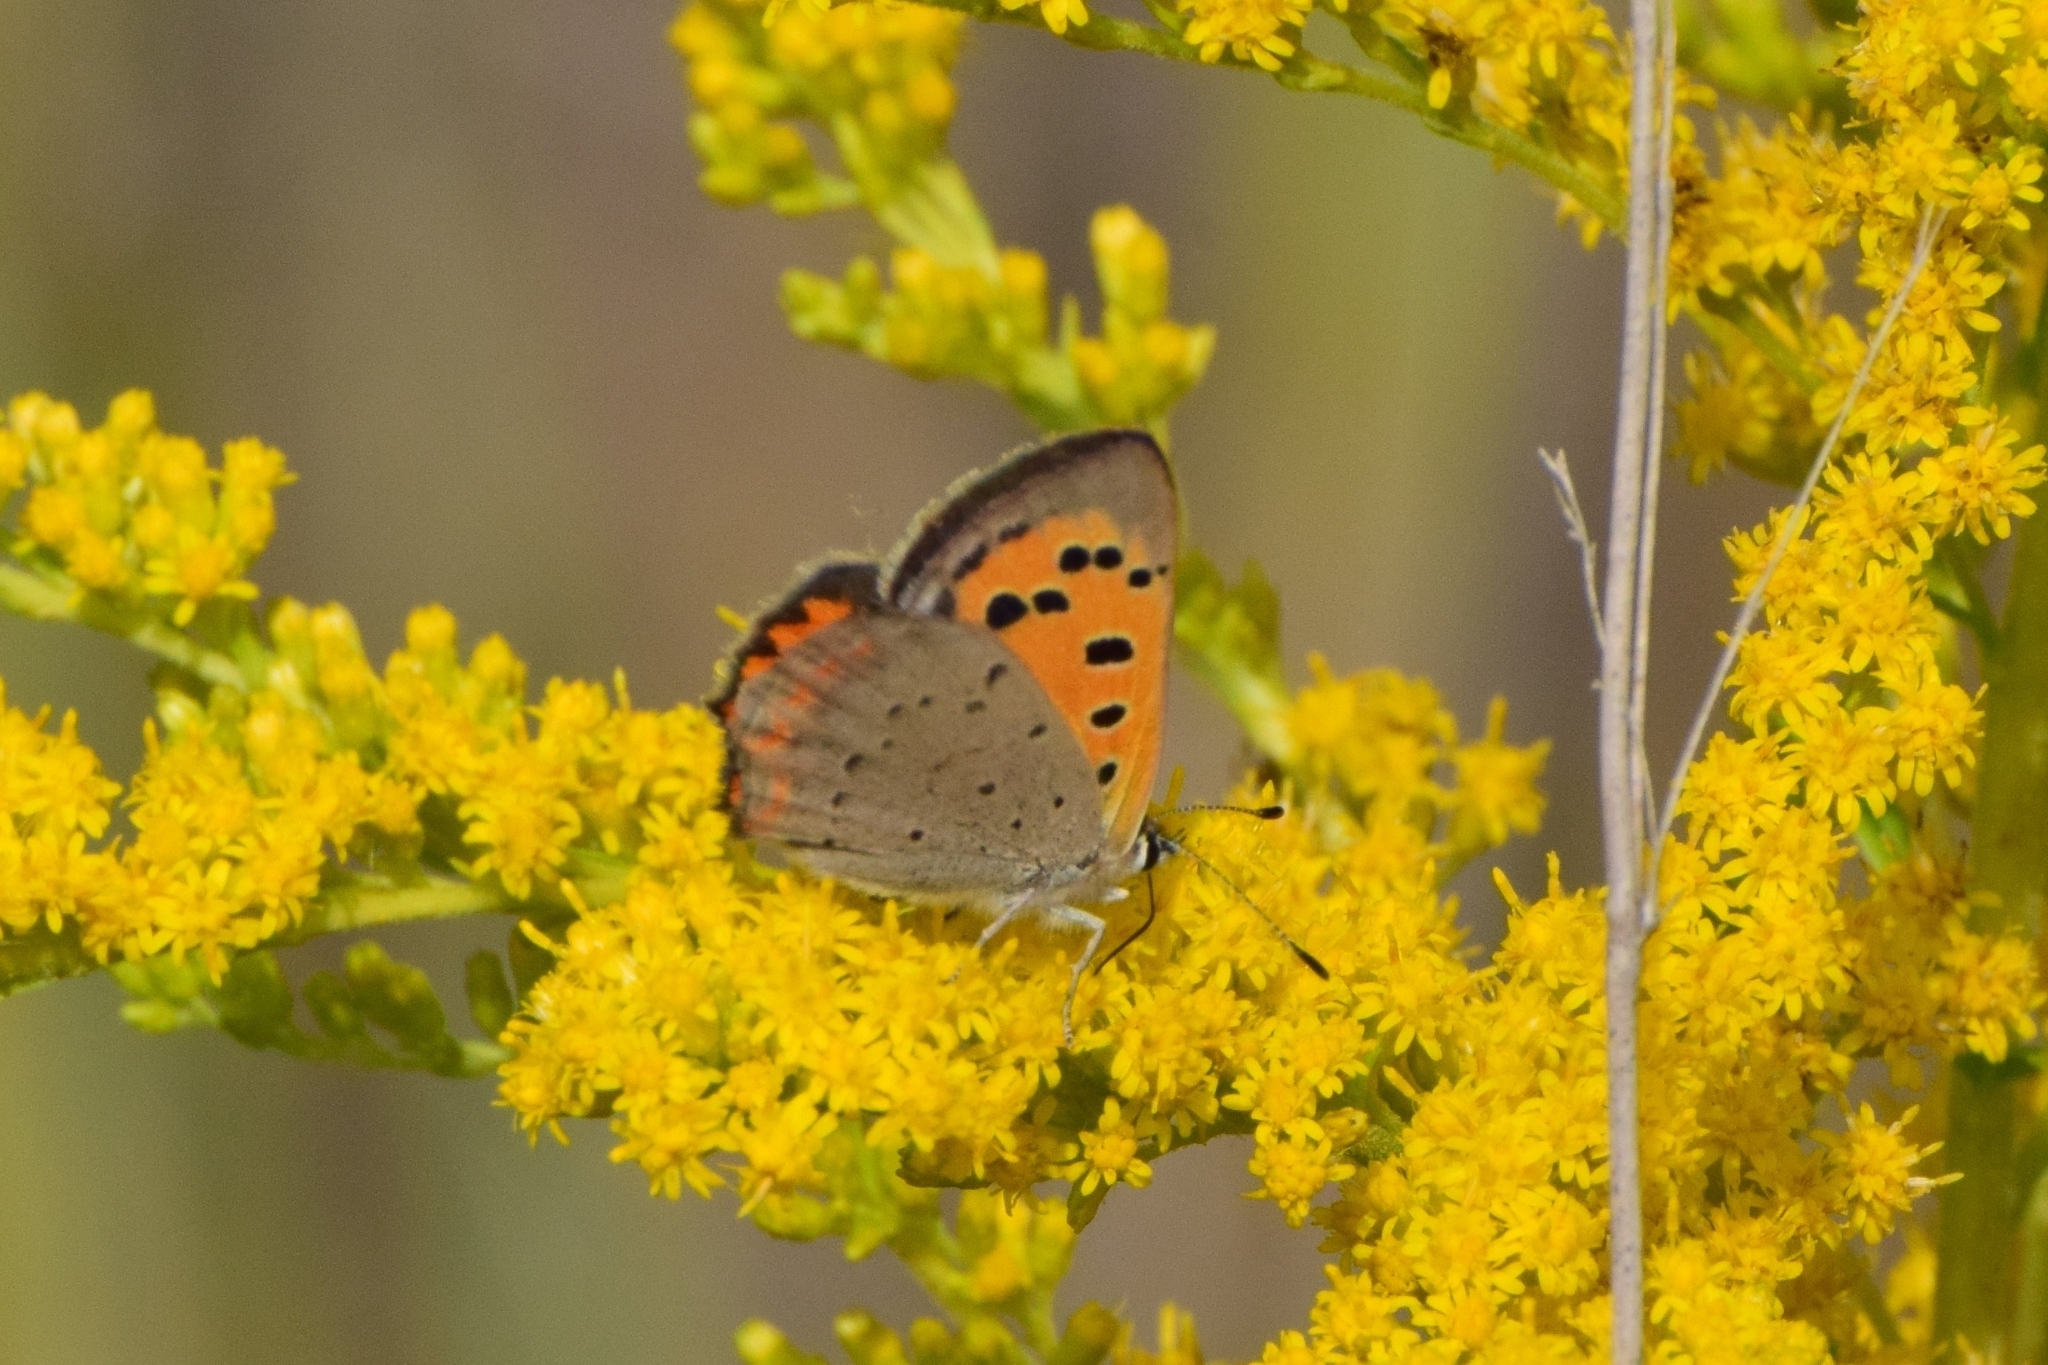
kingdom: Animalia
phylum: Arthropoda
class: Insecta
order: Lepidoptera
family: Lycaenidae
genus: Lycaena
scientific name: Lycaena phlaeas
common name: Small copper
